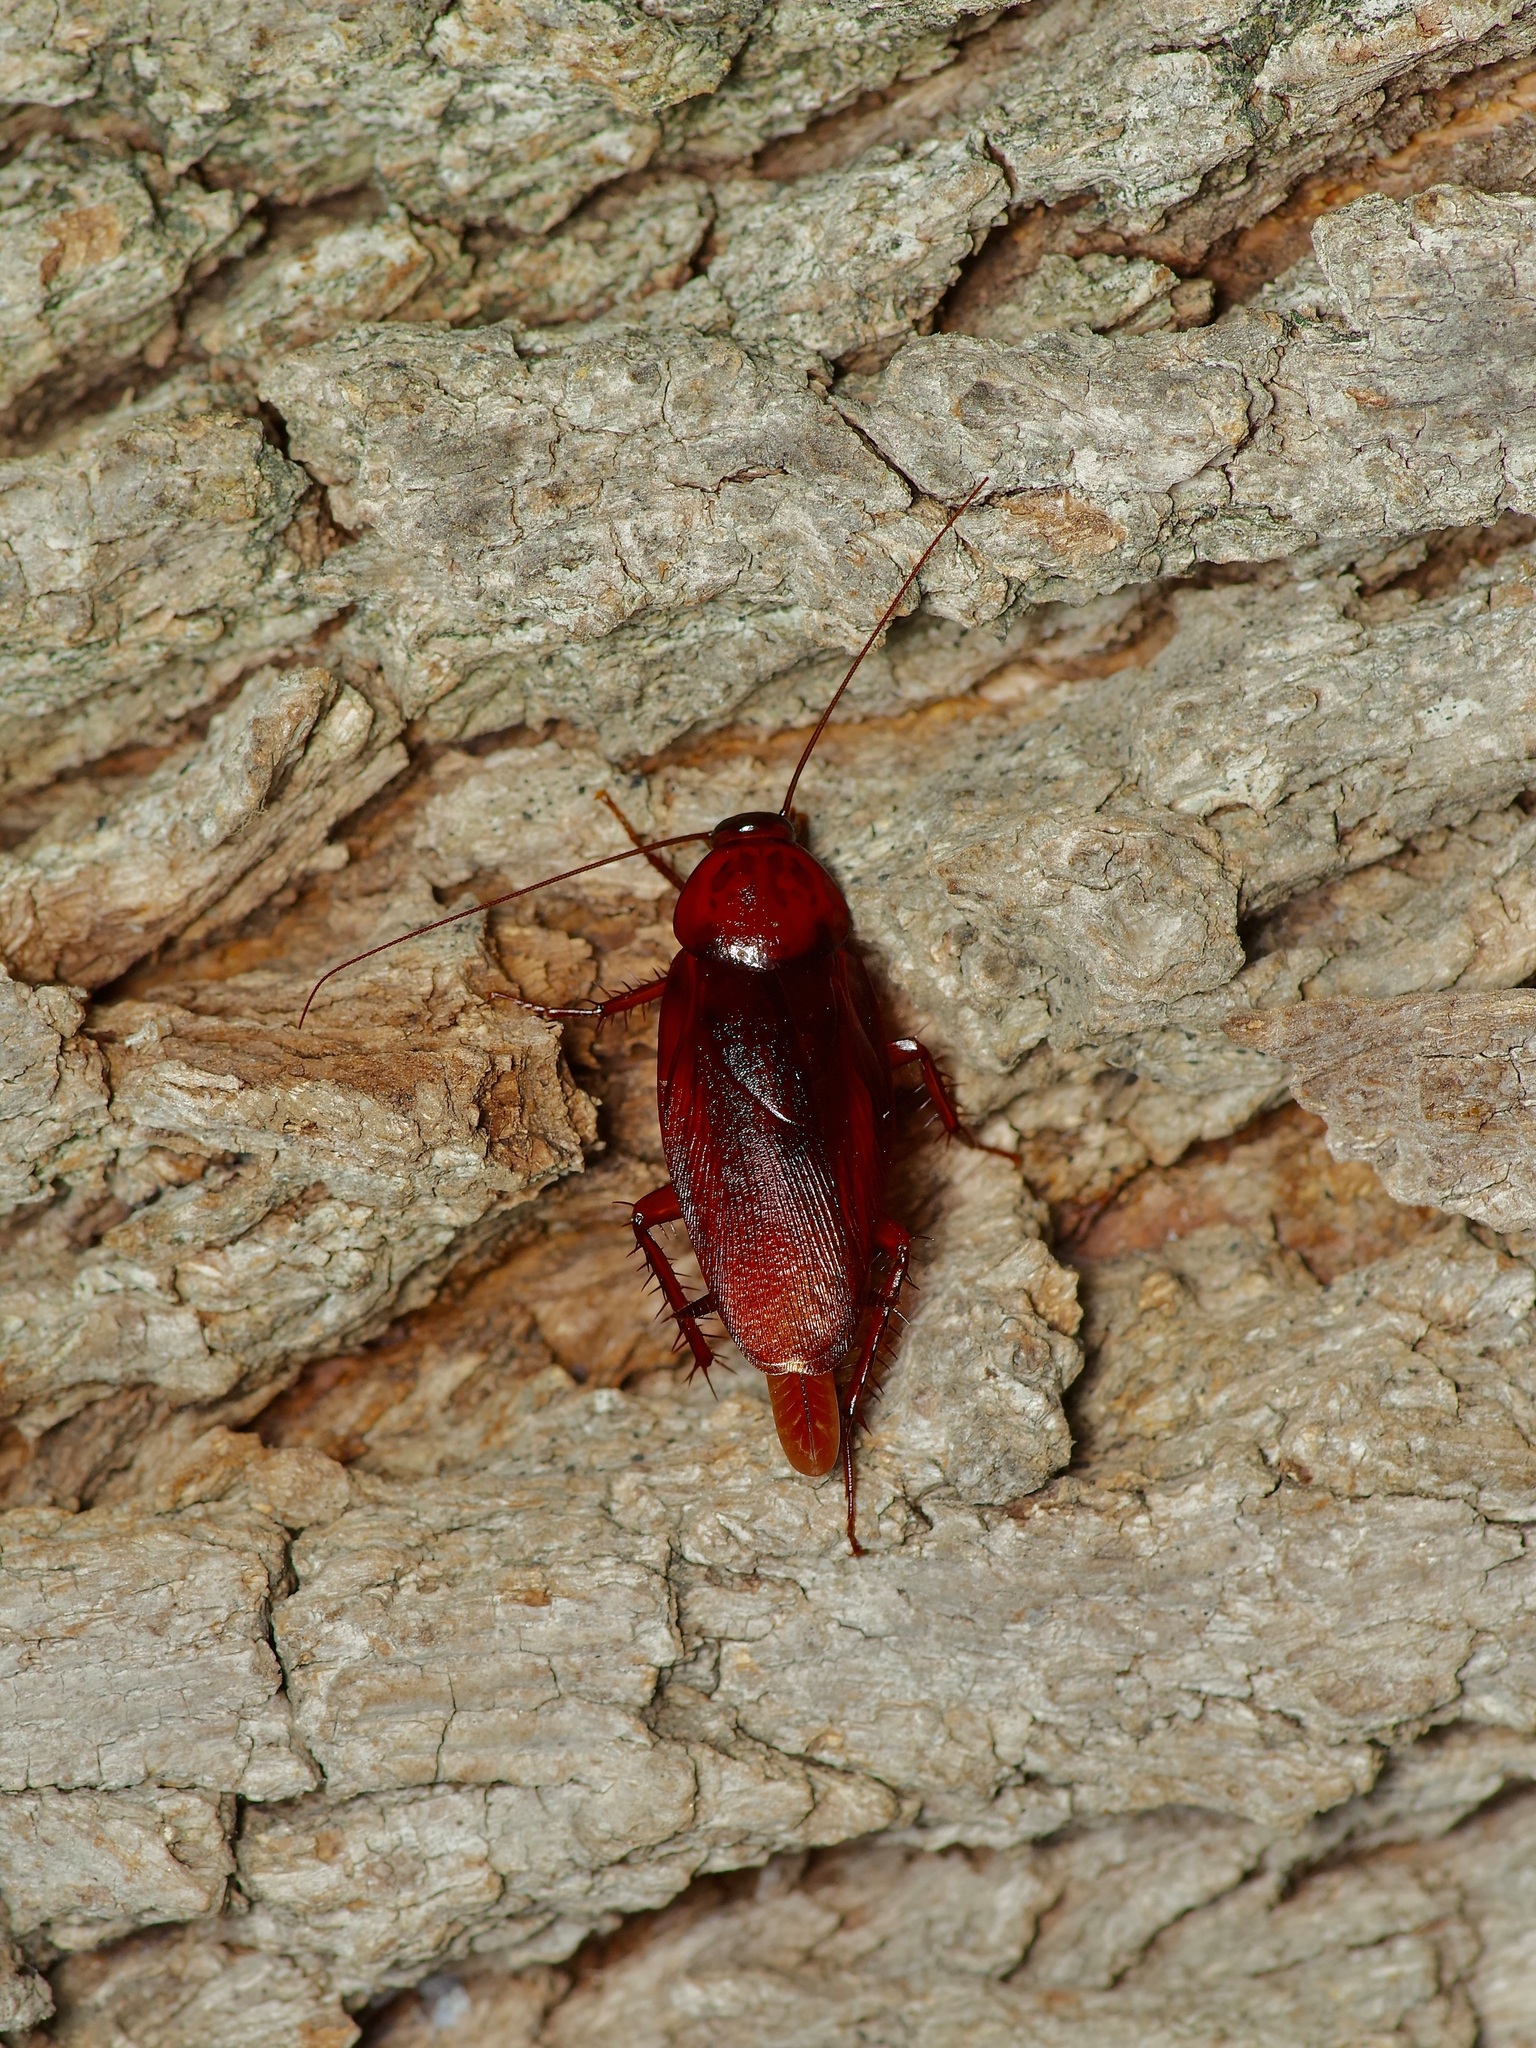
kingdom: Animalia
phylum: Arthropoda
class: Insecta
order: Blattodea
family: Blattidae
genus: Periplaneta
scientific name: Periplaneta fuliginosa
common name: Smokeybrown cockroad
